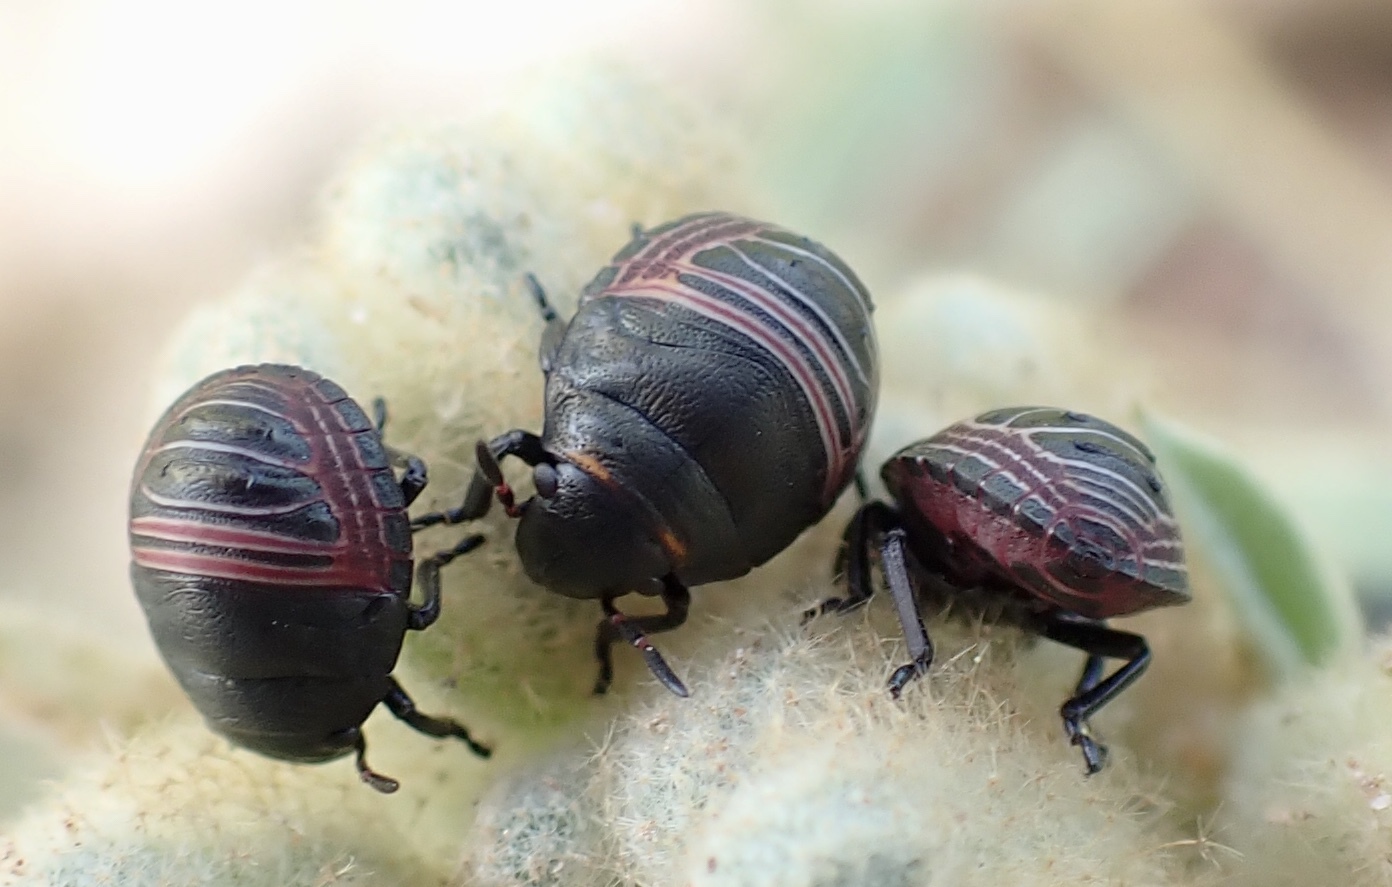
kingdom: Animalia
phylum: Arthropoda
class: Insecta
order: Hemiptera
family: Scutelleridae
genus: Orsilochides
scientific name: Orsilochides guttata
